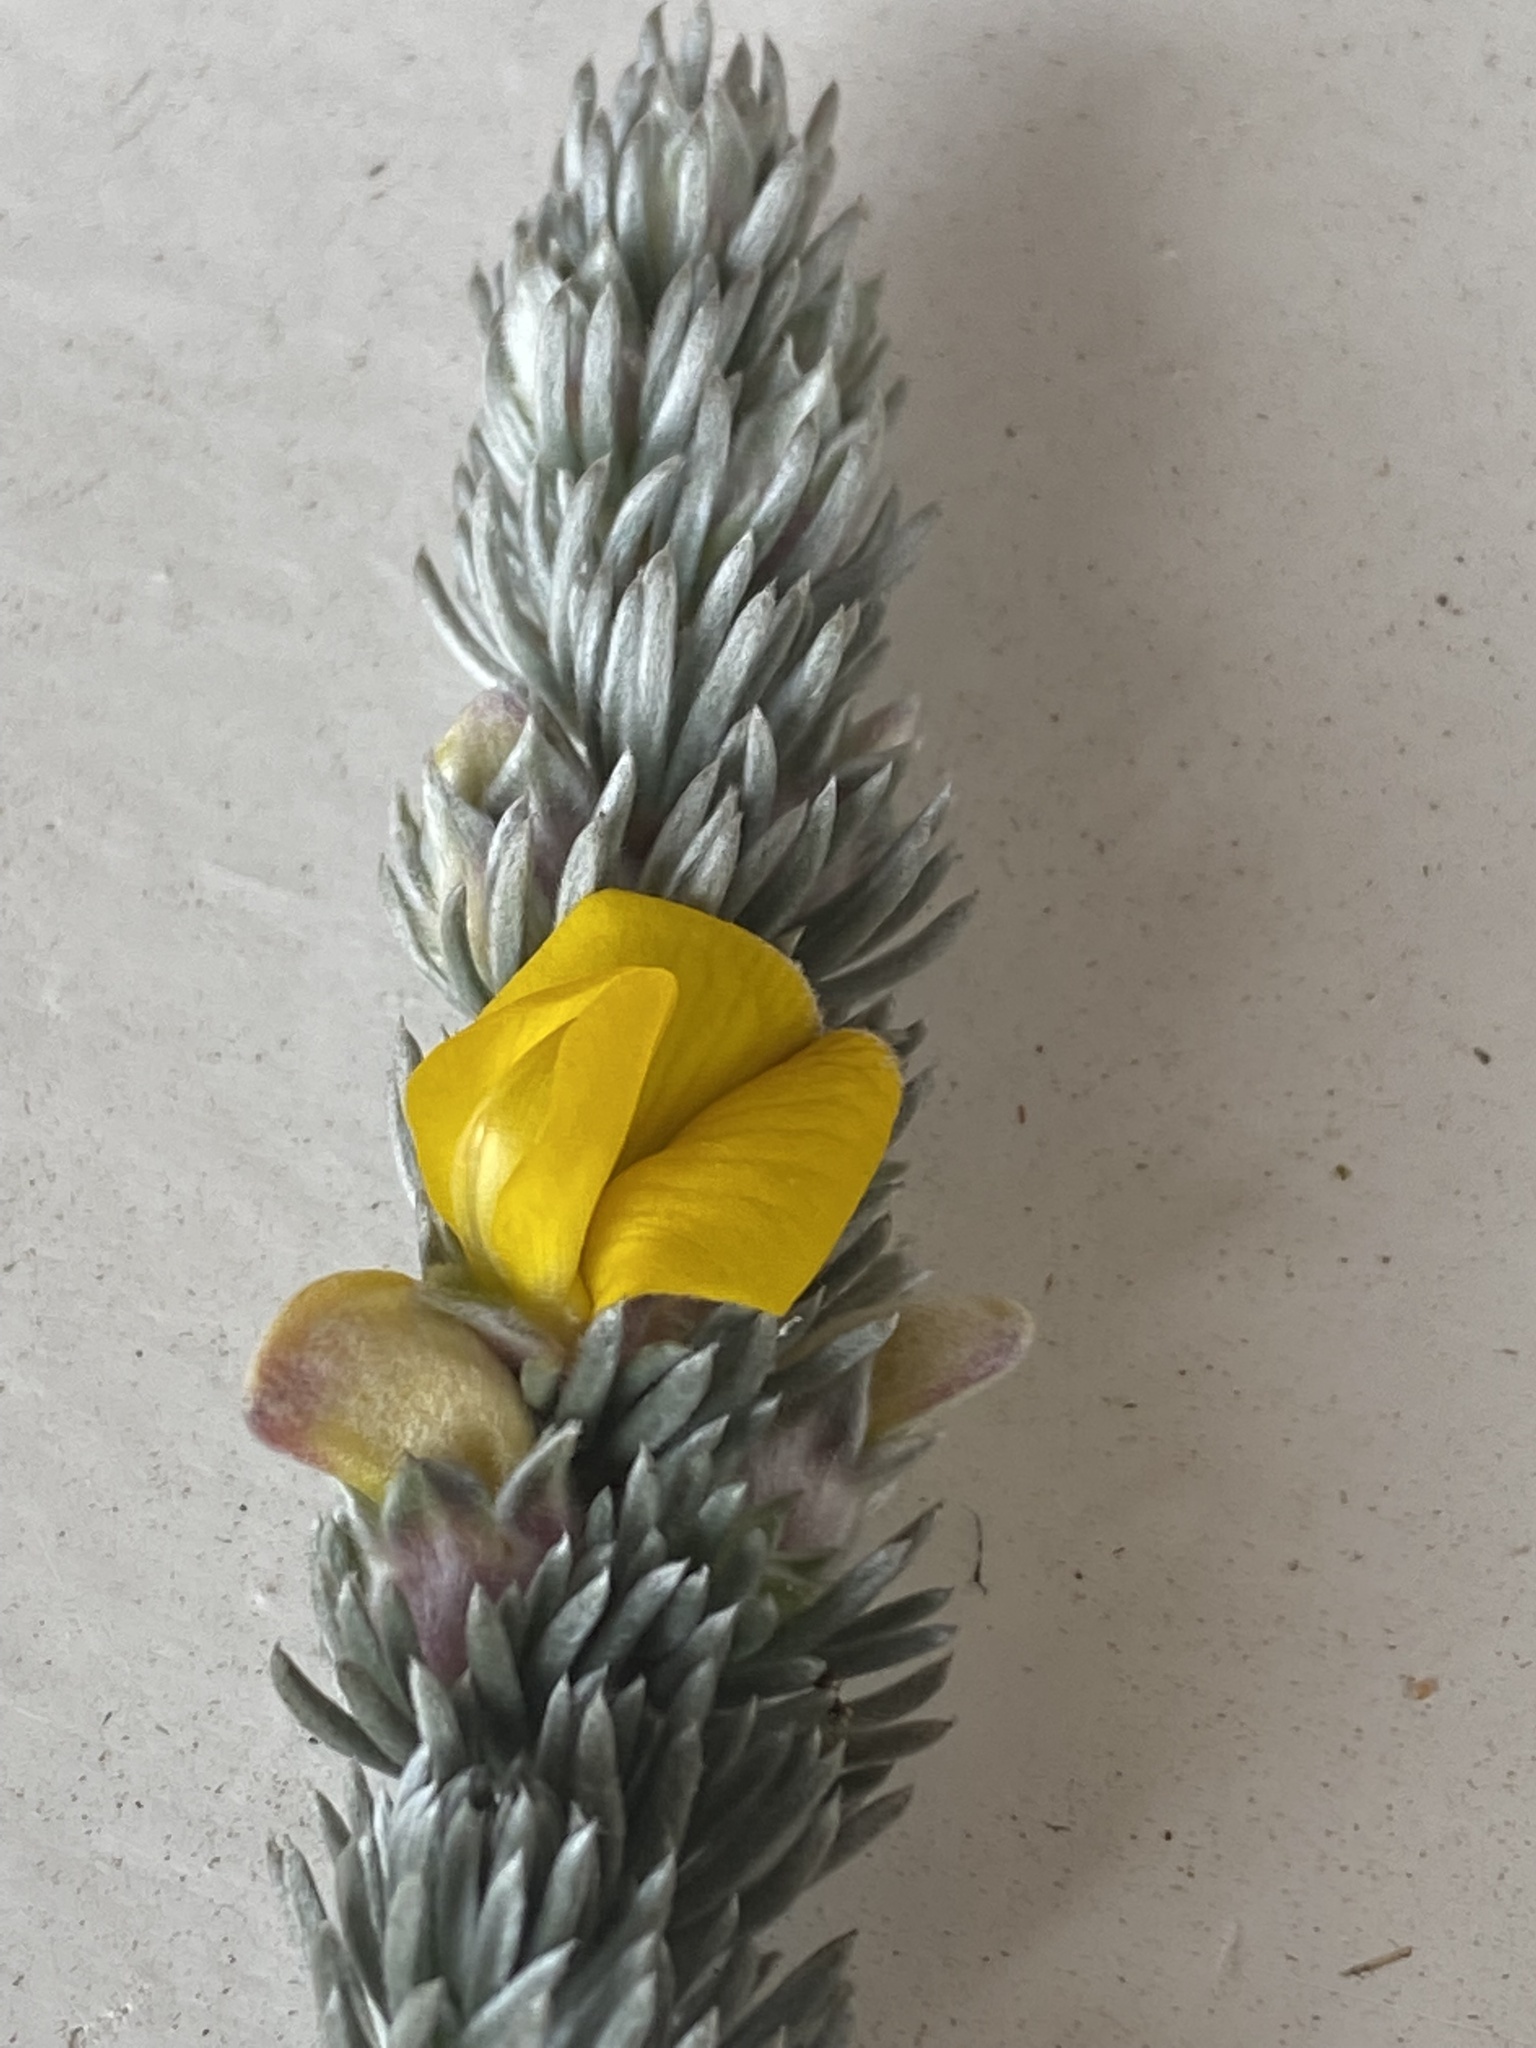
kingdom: Plantae
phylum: Tracheophyta
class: Magnoliopsida
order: Fabales
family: Fabaceae
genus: Aspalathus
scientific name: Aspalathus nickhelmei
